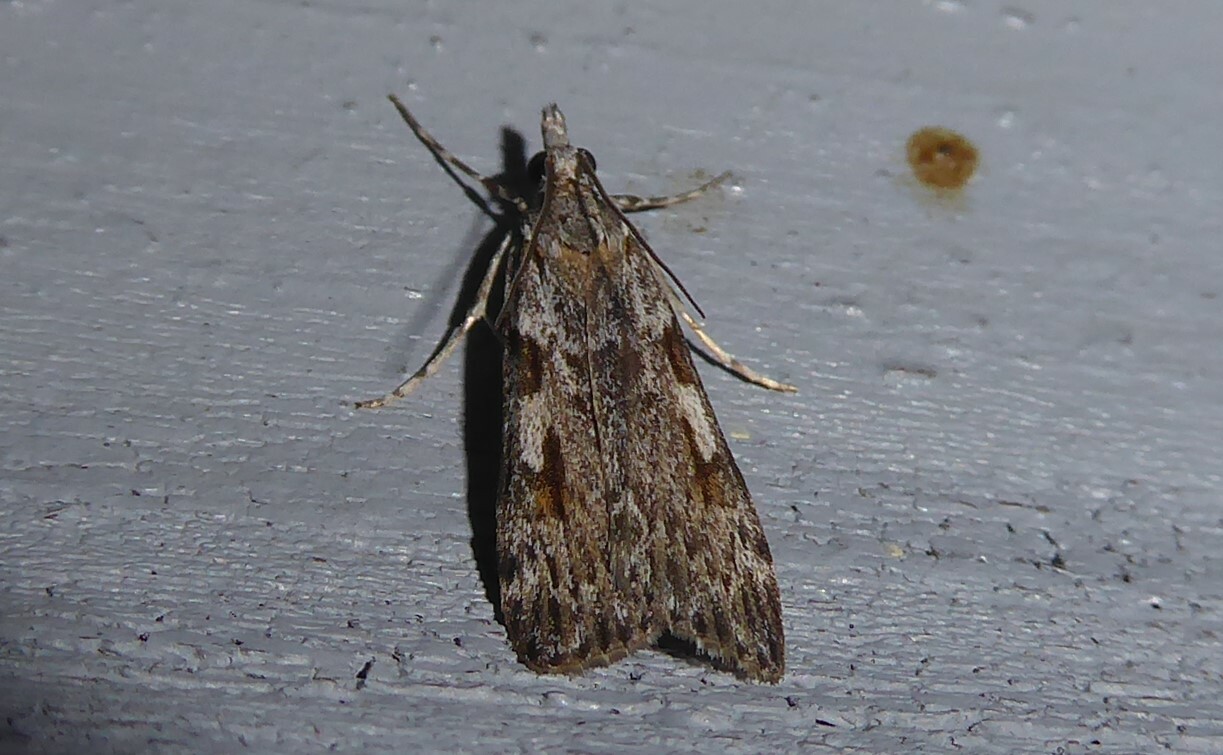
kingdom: Animalia
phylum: Arthropoda
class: Insecta
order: Lepidoptera
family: Crambidae
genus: Scoparia
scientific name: Scoparia halopis
